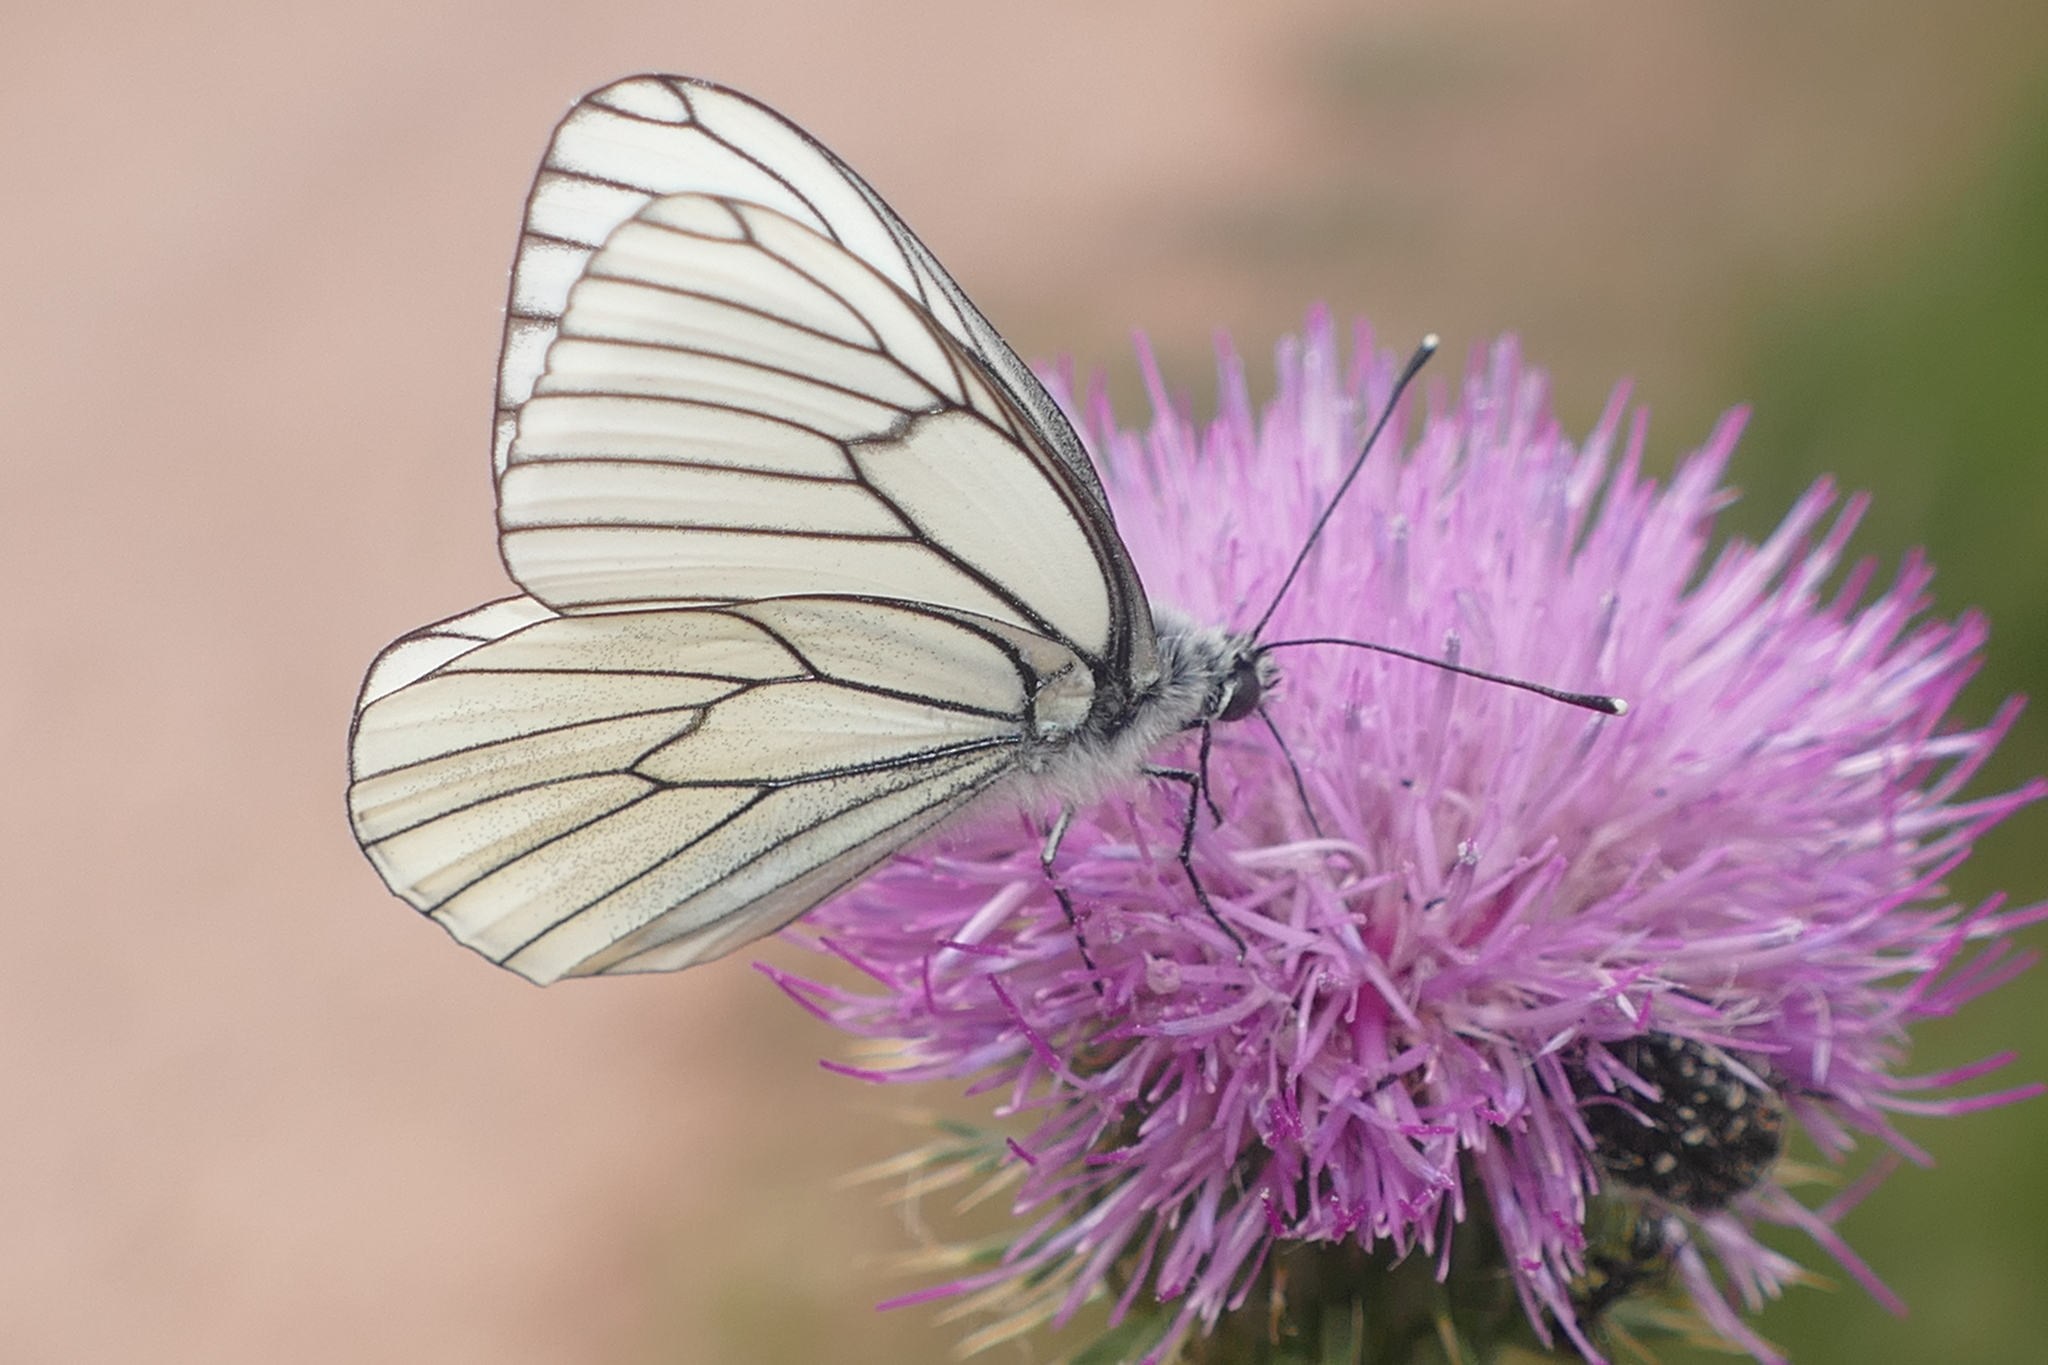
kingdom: Animalia
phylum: Arthropoda
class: Insecta
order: Lepidoptera
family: Pieridae
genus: Aporia
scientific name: Aporia crataegi
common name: Black-veined white
